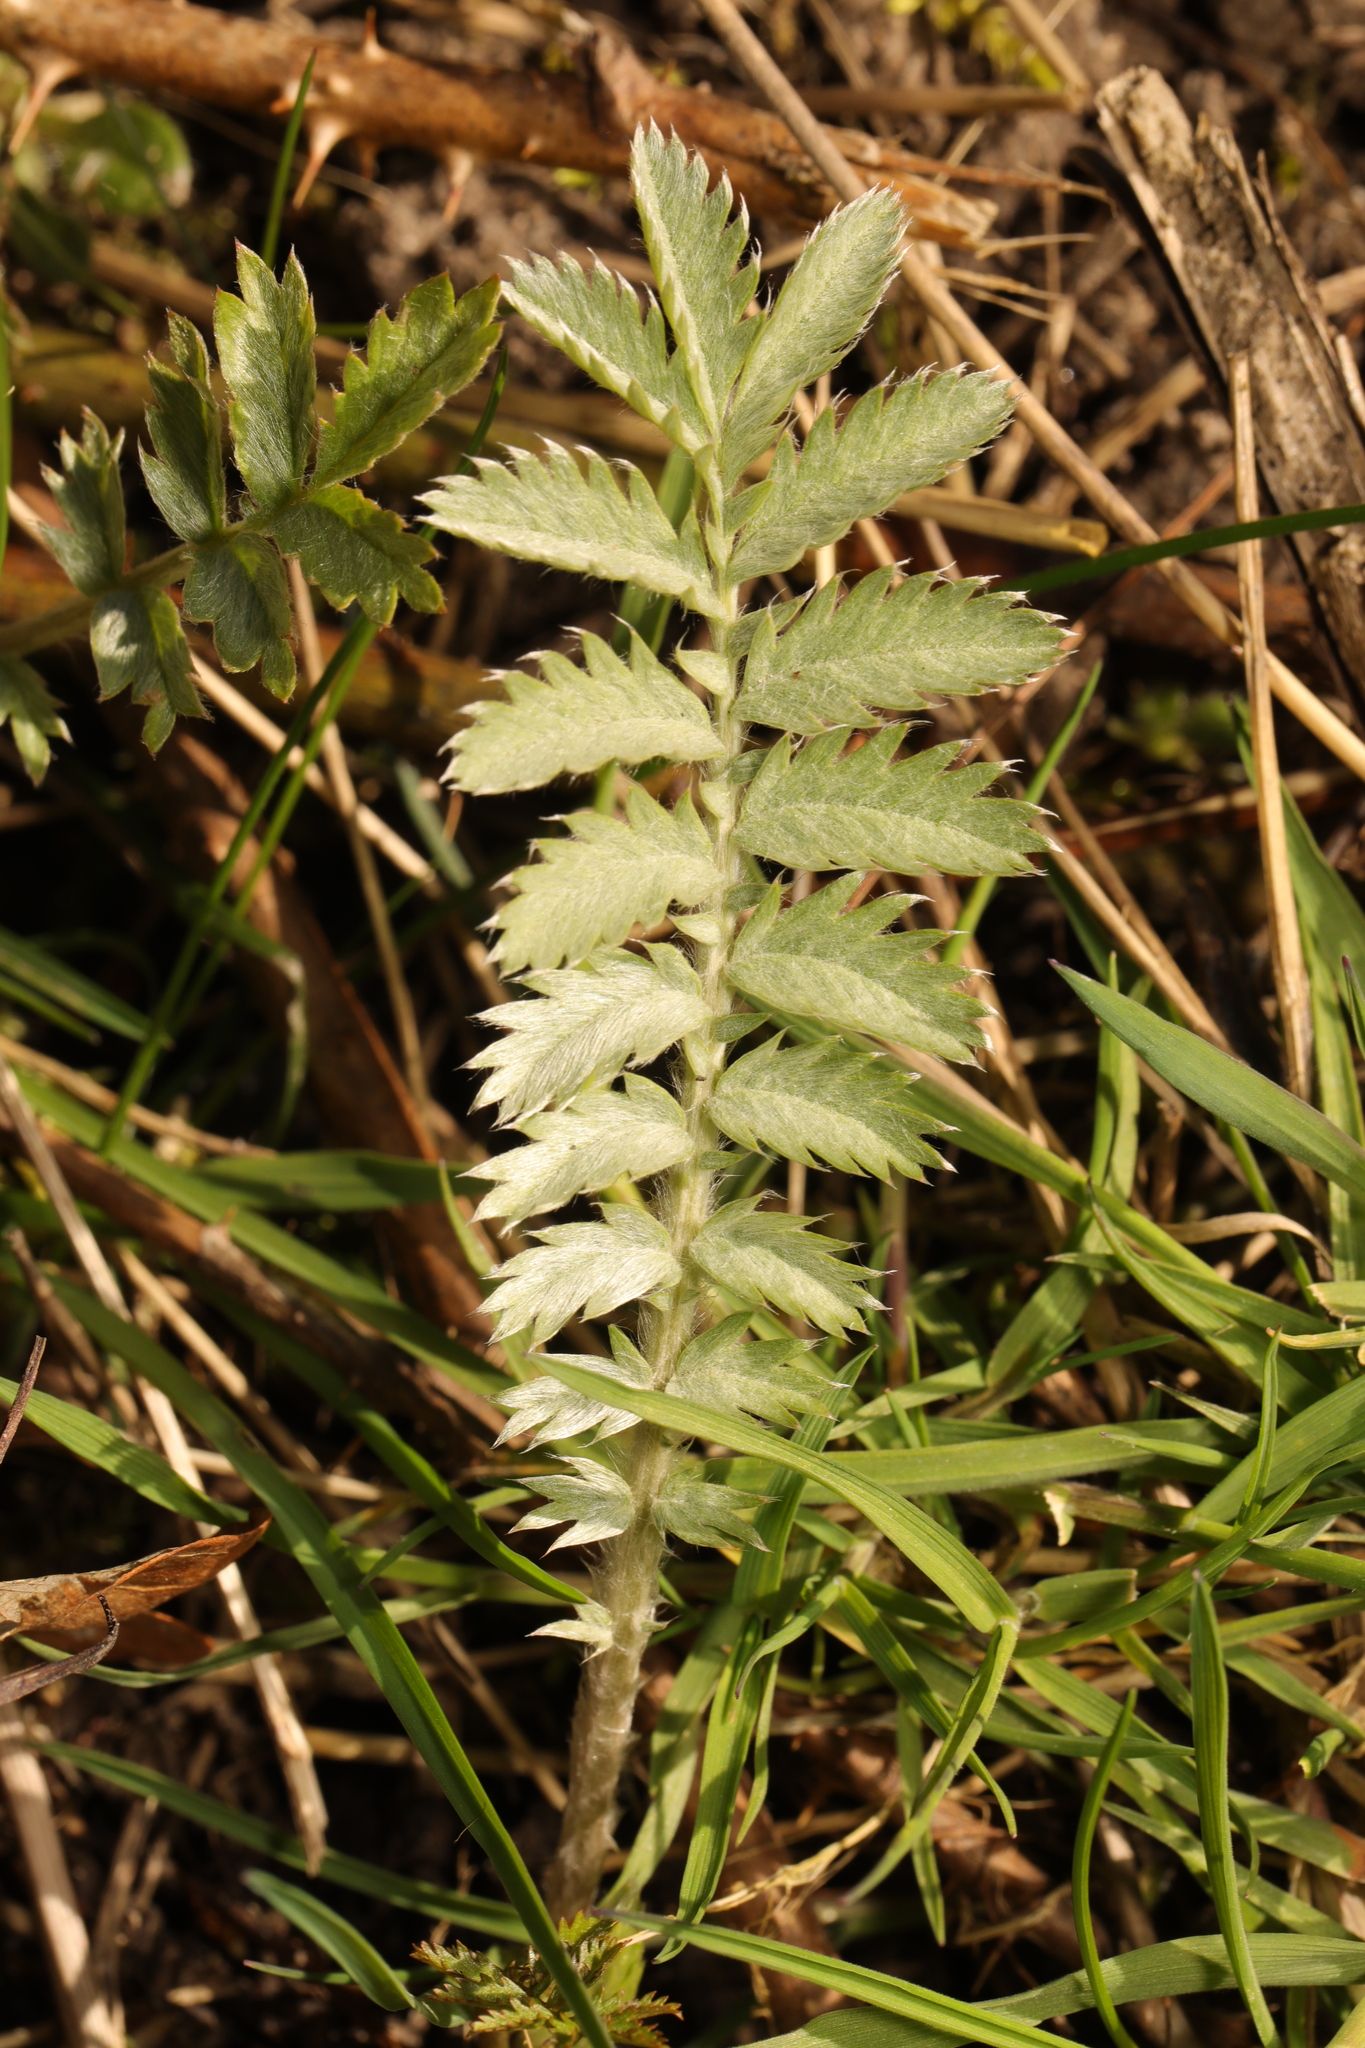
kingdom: Plantae
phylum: Tracheophyta
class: Magnoliopsida
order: Rosales
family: Rosaceae
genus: Argentina
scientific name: Argentina anserina
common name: Common silverweed
